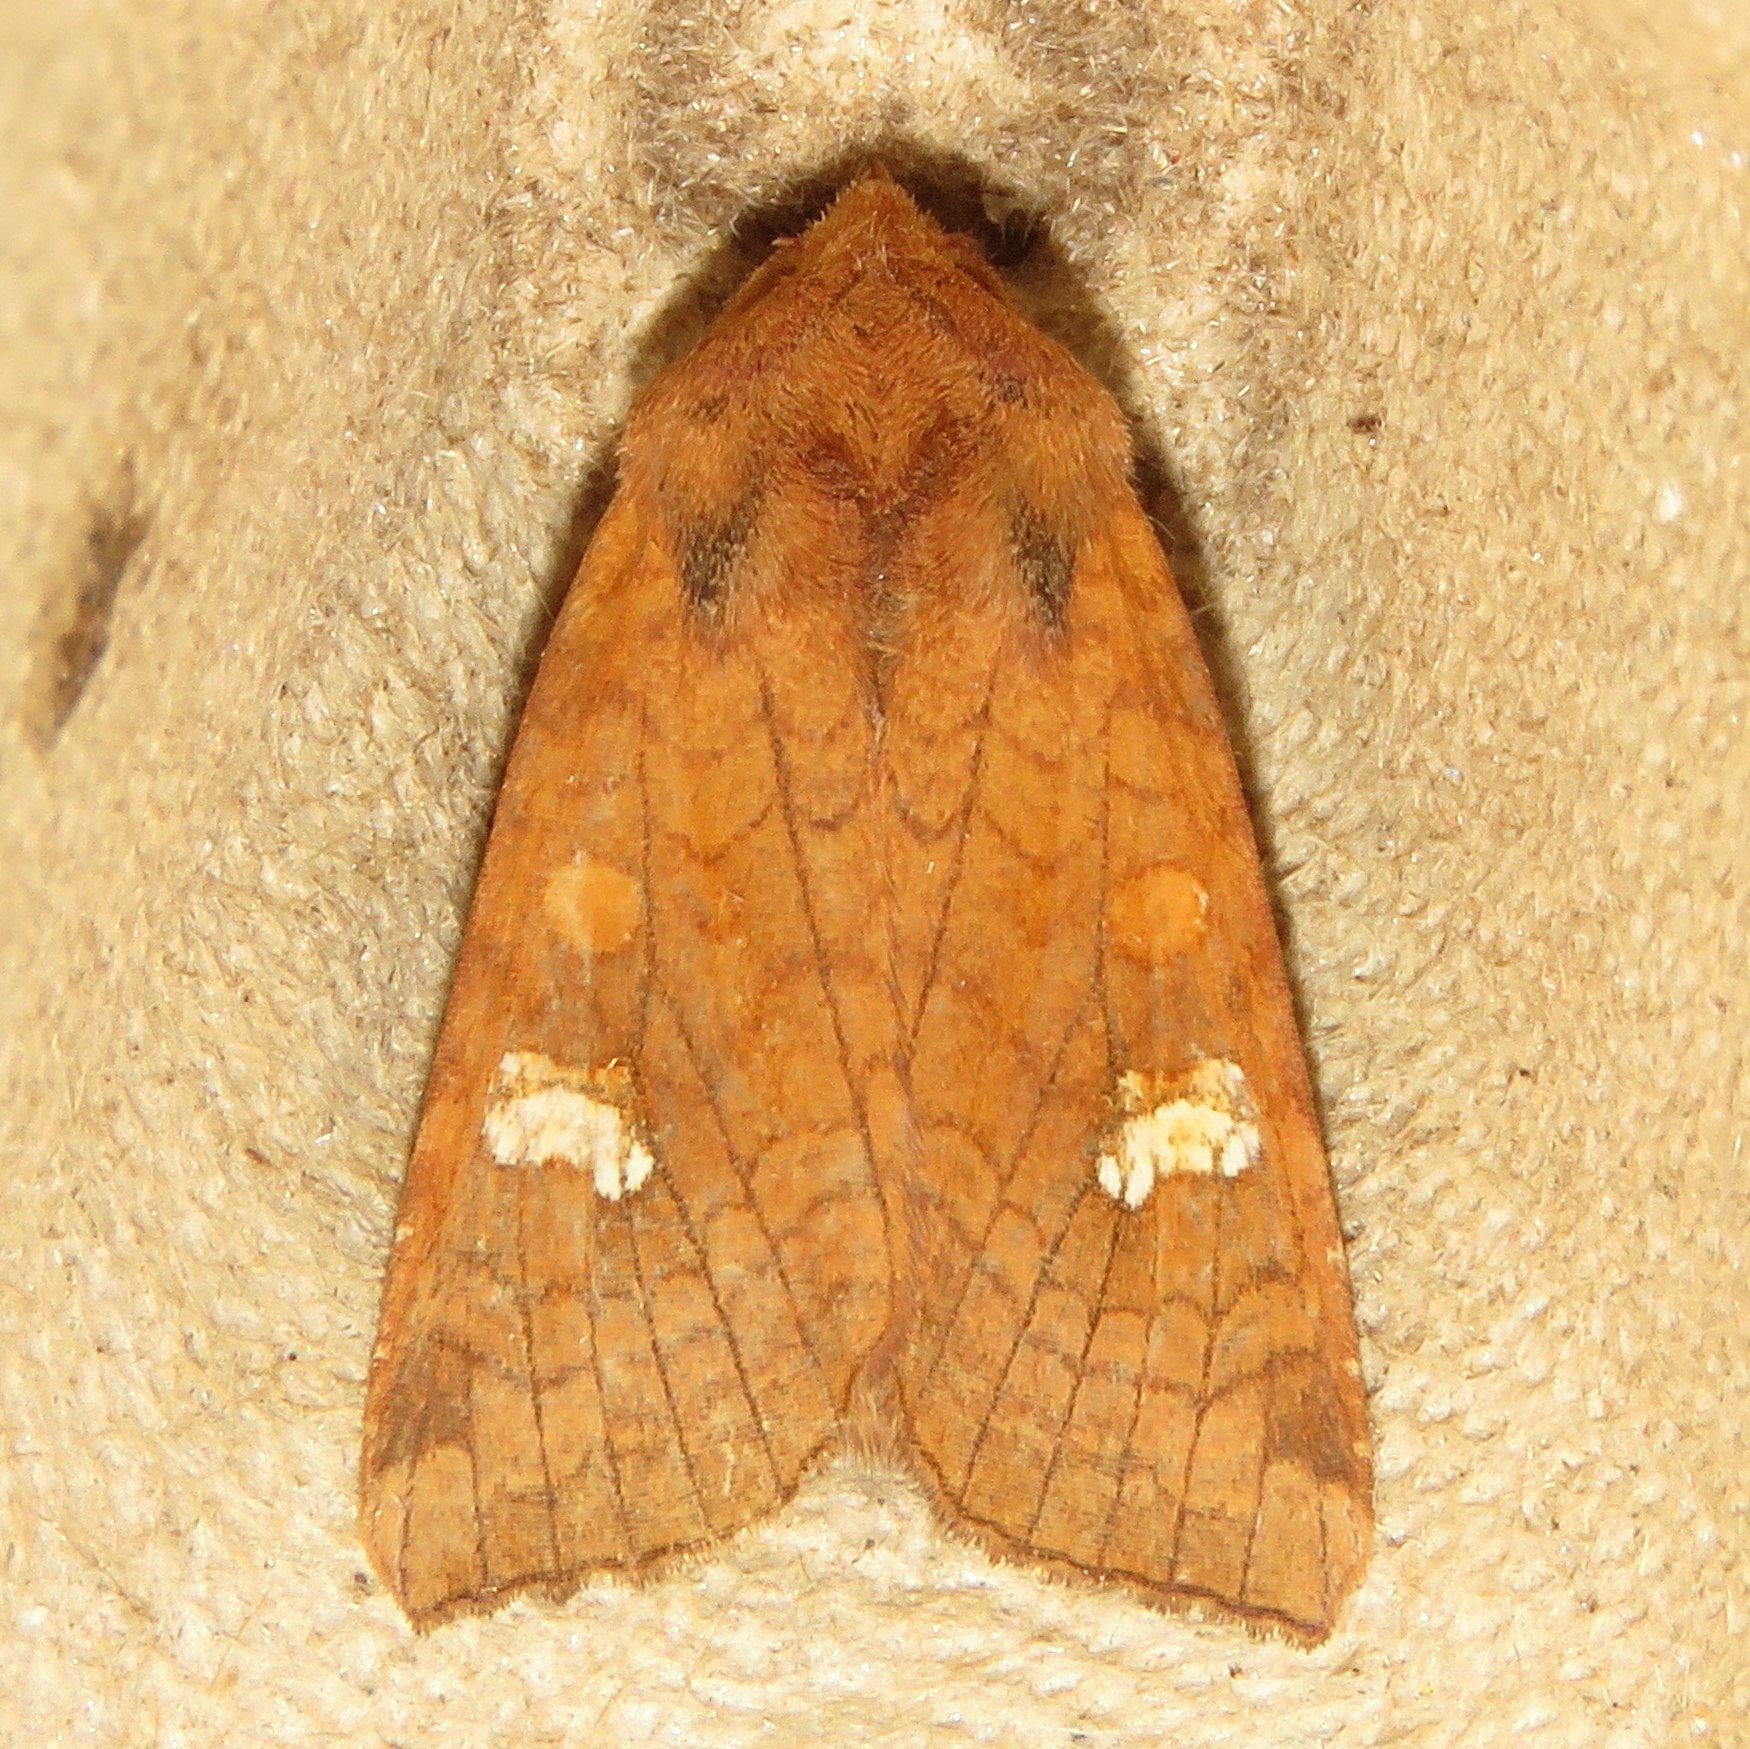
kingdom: Animalia
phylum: Arthropoda
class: Insecta
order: Lepidoptera
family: Noctuidae
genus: Amphipoea
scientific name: Amphipoea americana
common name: American ear moth
